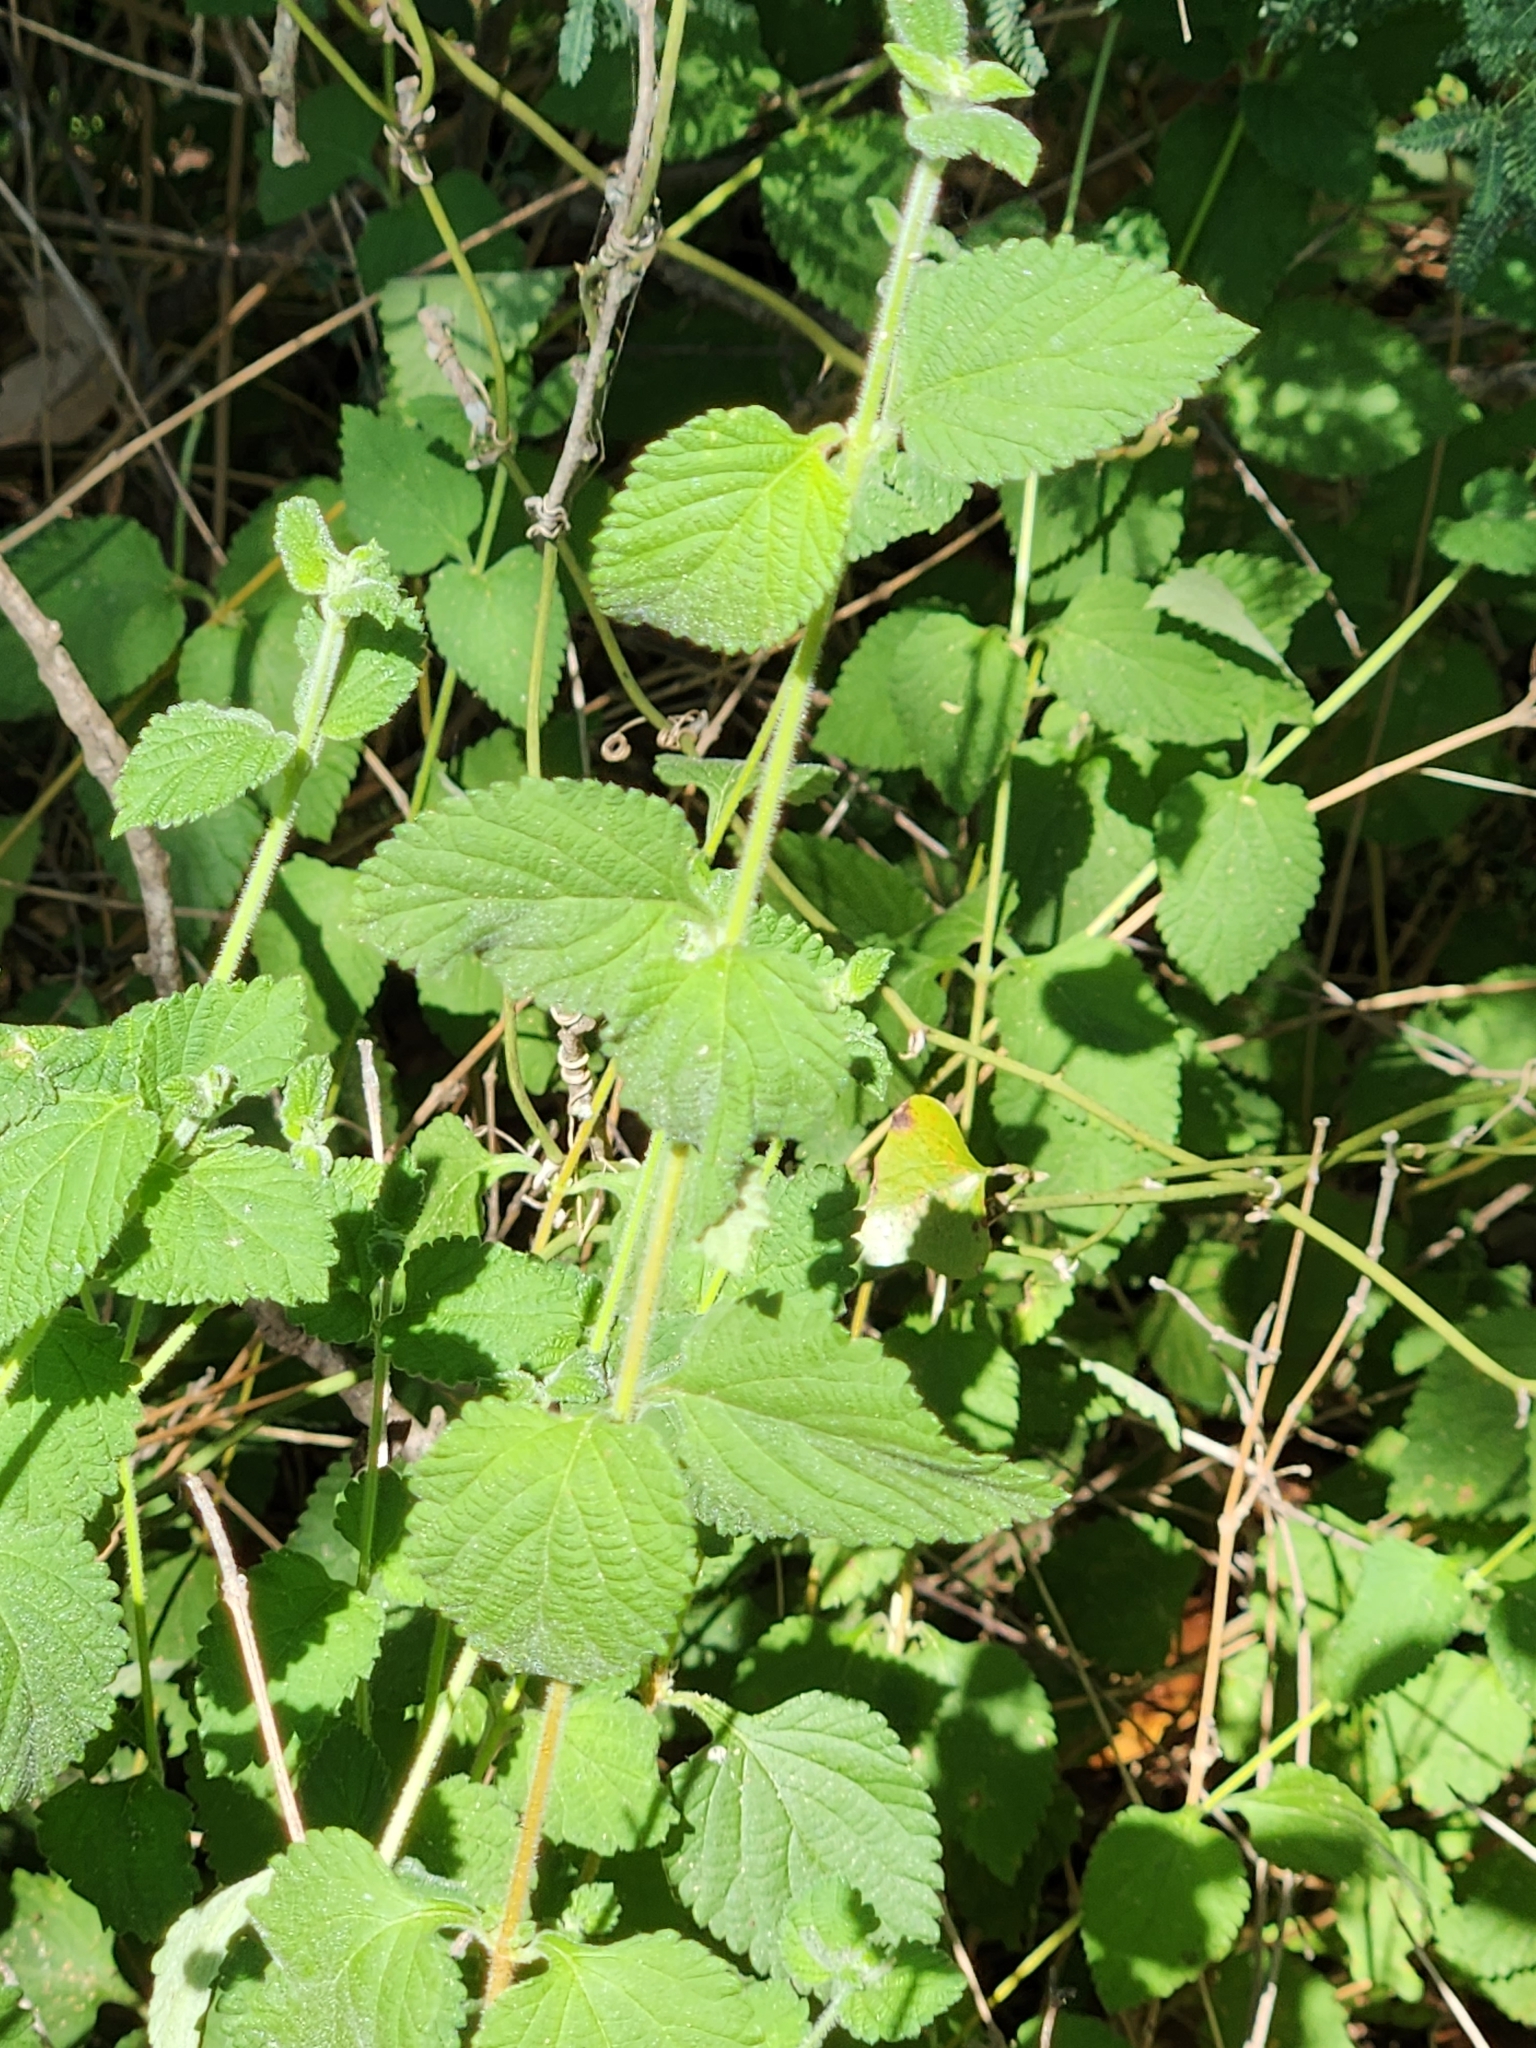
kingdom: Plantae
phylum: Tracheophyta
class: Magnoliopsida
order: Lamiales
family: Verbenaceae
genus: Lantana
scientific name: Lantana montevidensis
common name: Trailing shrubverbena
